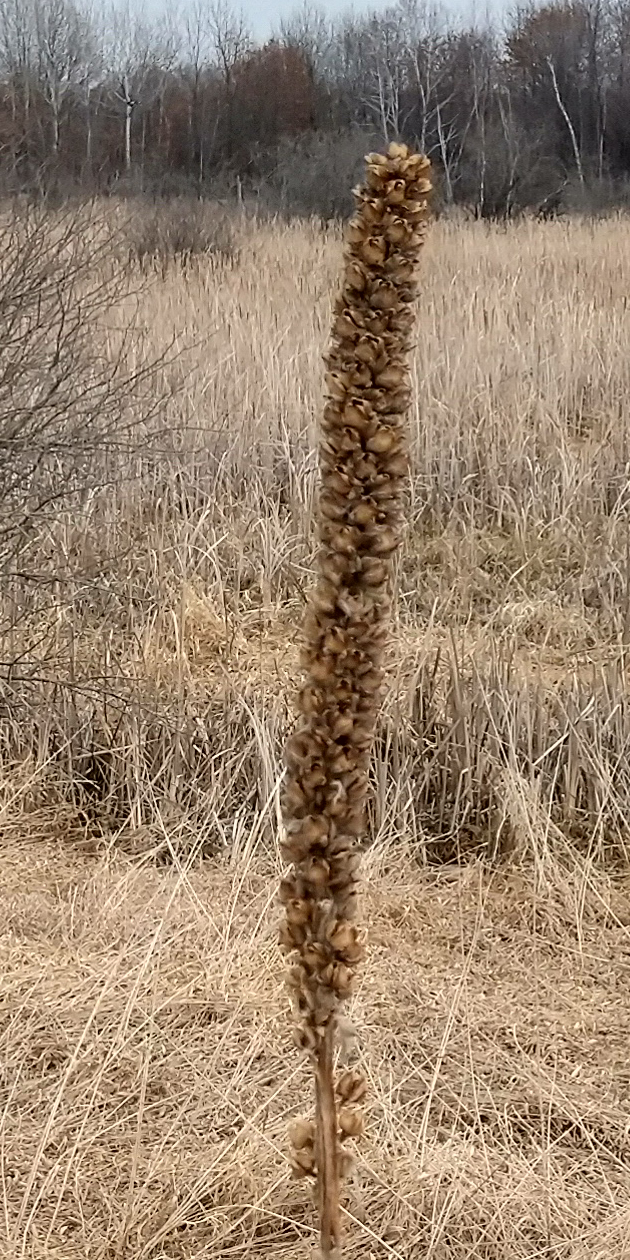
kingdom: Plantae
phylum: Tracheophyta
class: Magnoliopsida
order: Lamiales
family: Scrophulariaceae
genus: Verbascum
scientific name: Verbascum thapsus
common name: Common mullein
